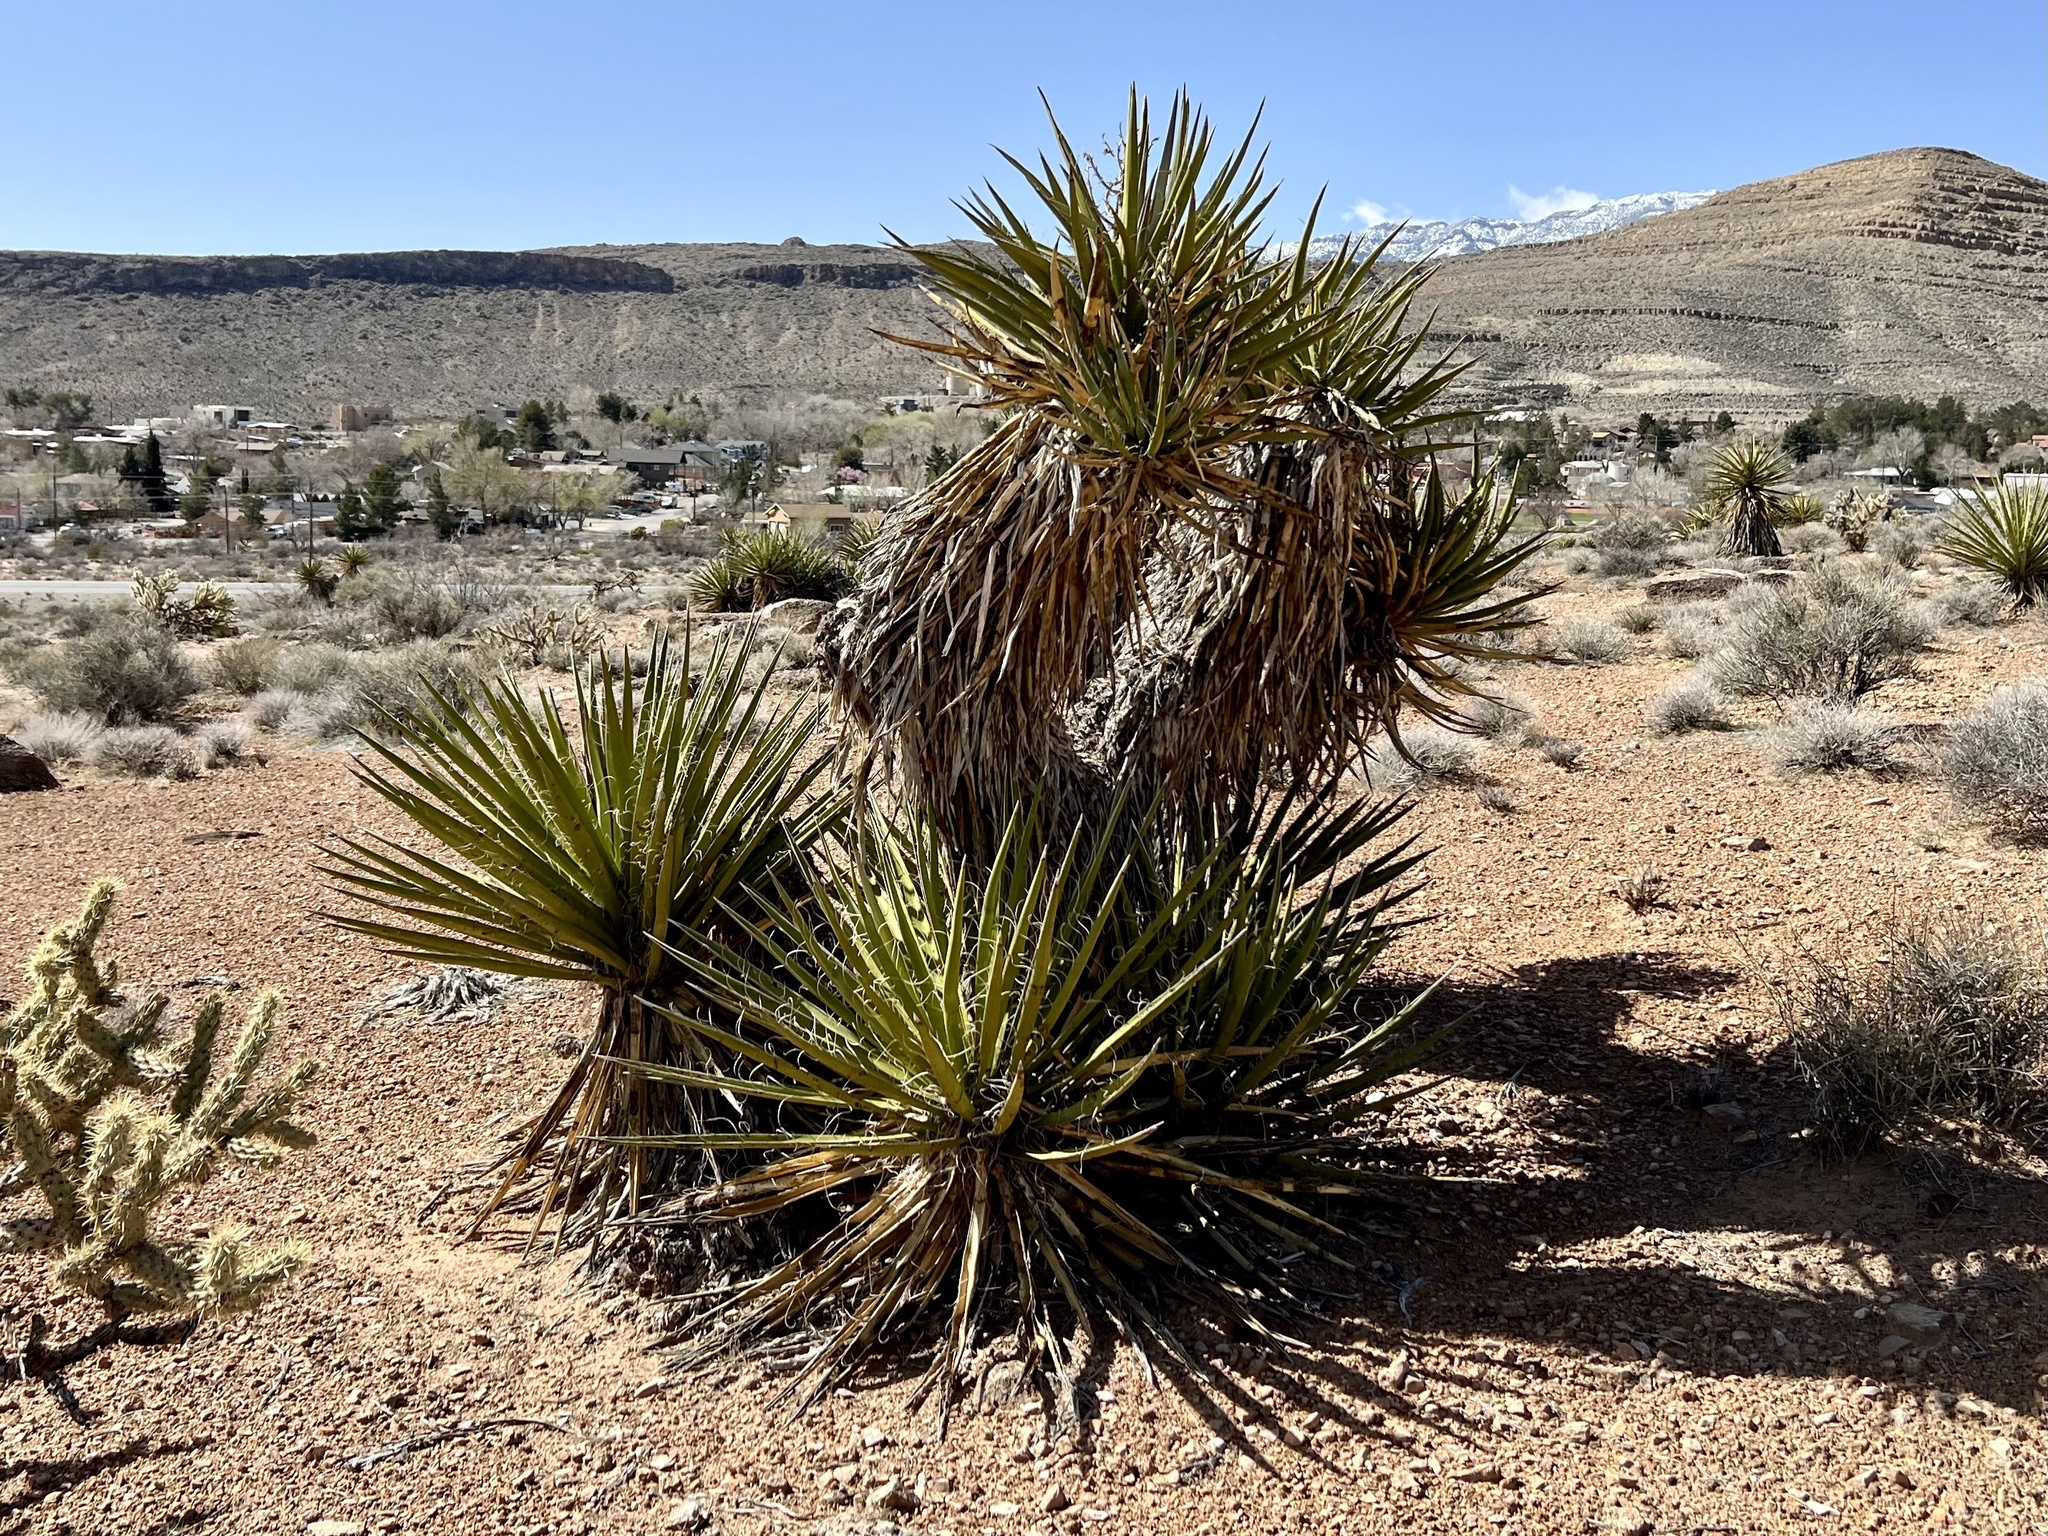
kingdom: Plantae
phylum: Tracheophyta
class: Liliopsida
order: Asparagales
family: Asparagaceae
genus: Yucca
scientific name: Yucca schidigera
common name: Mojave yucca
